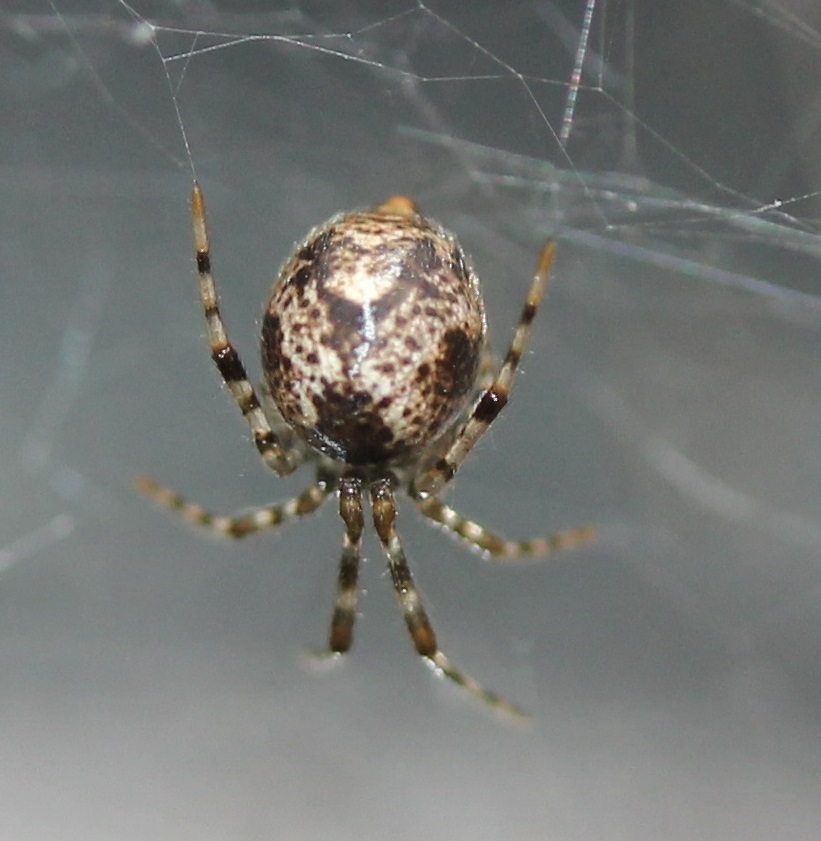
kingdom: Animalia
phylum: Arthropoda
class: Arachnida
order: Araneae
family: Theridiidae
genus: Parasteatoda
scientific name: Parasteatoda tepidariorum
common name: Common house spider
